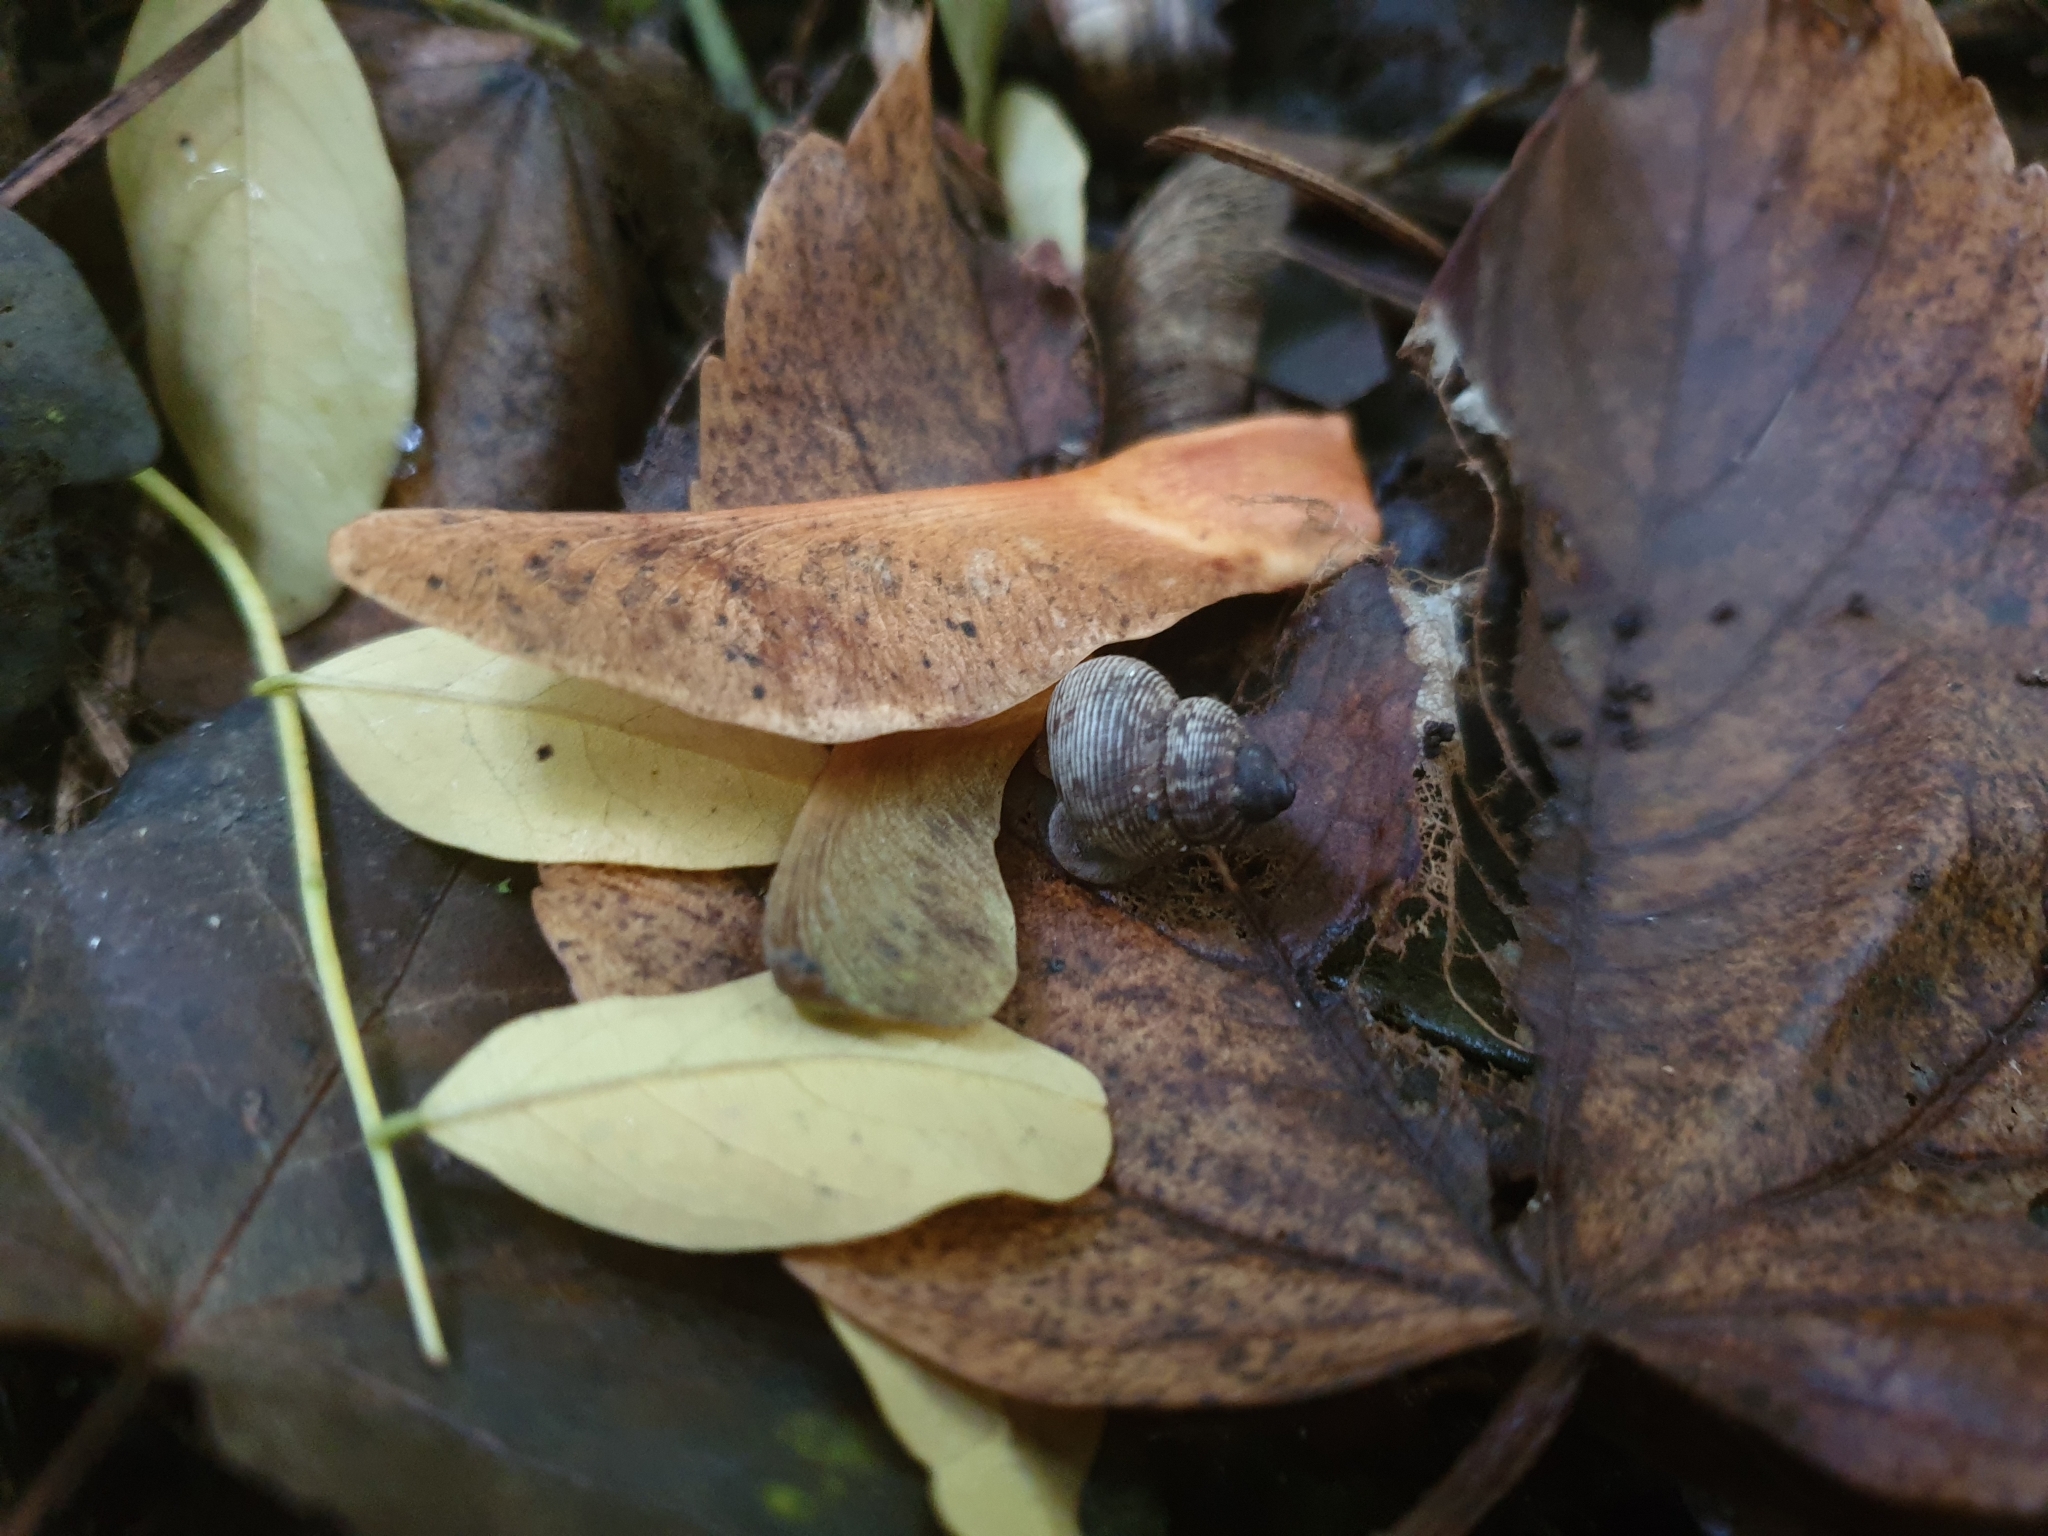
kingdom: Animalia
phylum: Mollusca
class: Gastropoda
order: Littorinimorpha
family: Pomatiidae
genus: Pomatias
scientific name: Pomatias elegans
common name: Red-mouthed snail
